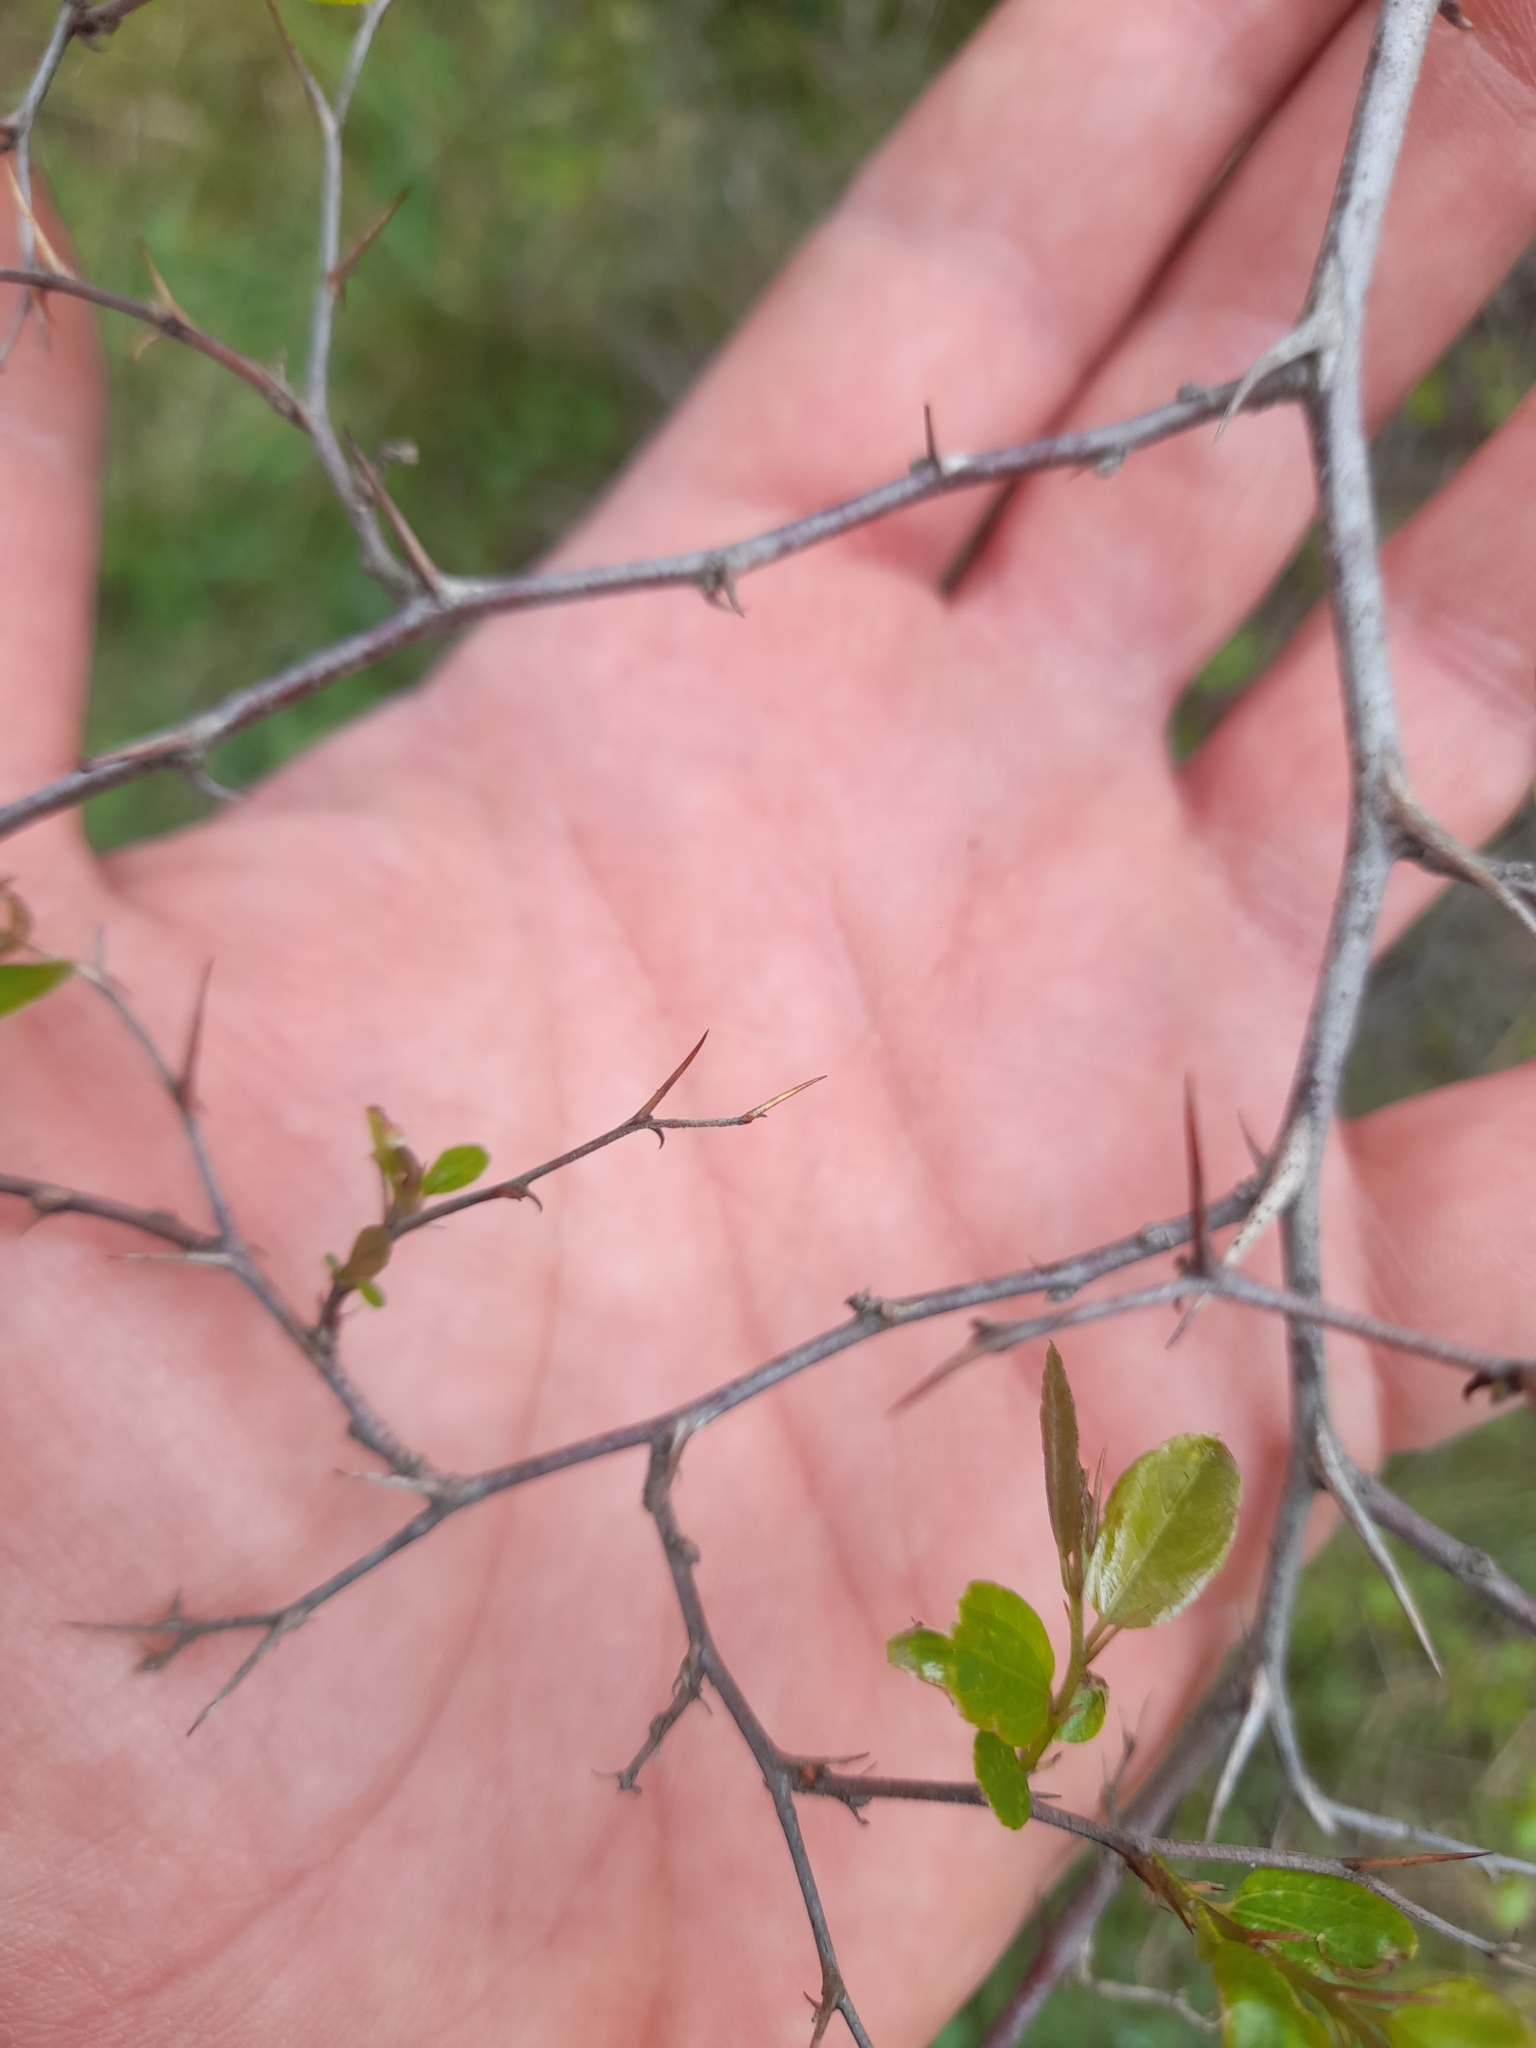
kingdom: Plantae
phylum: Tracheophyta
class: Magnoliopsida
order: Rosales
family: Rhamnaceae
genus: Paliurus
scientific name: Paliurus spina-christi
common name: Jeruselem thorn
